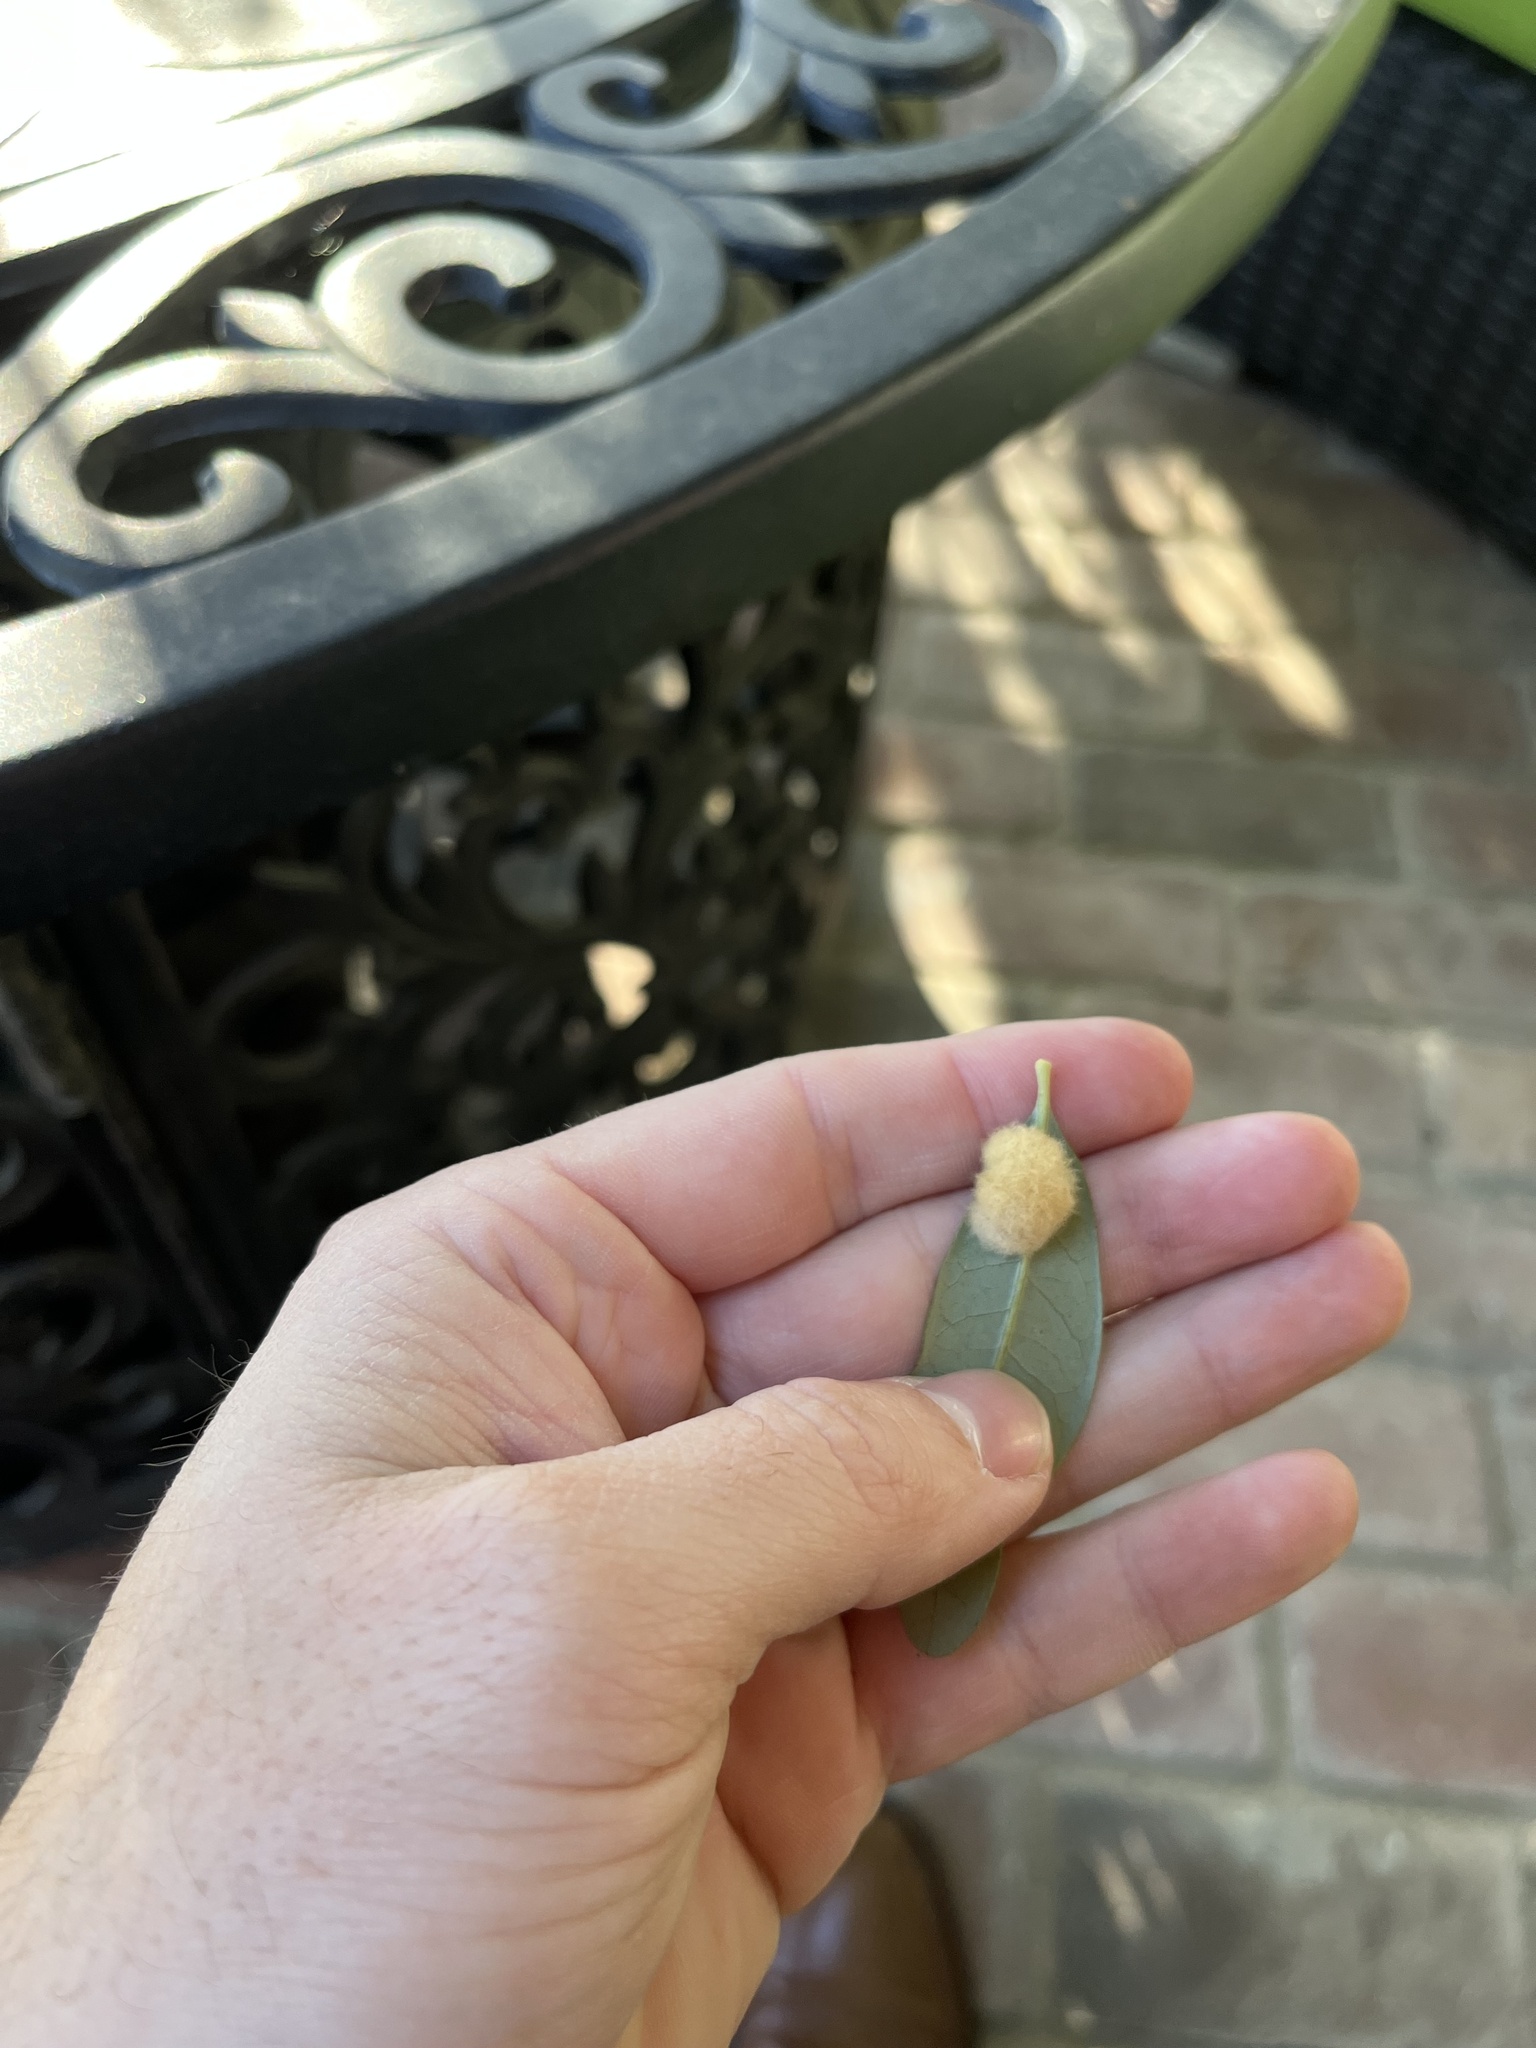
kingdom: Animalia
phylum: Arthropoda
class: Insecta
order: Hymenoptera
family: Cynipidae
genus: Andricus
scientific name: Andricus Druon quercuslanigerum
